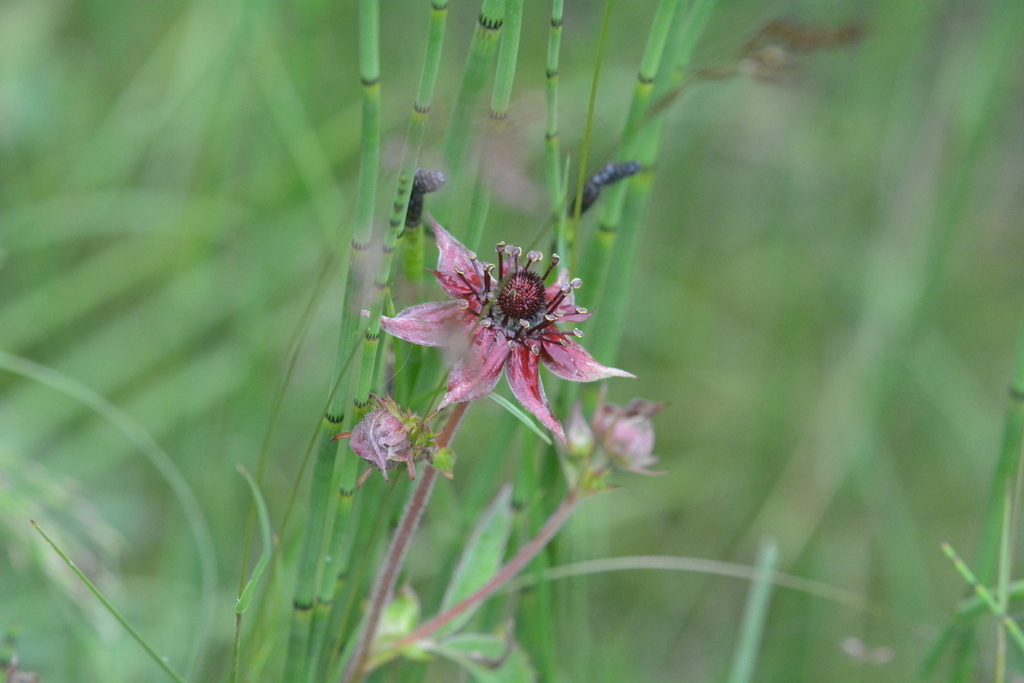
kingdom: Plantae
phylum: Tracheophyta
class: Magnoliopsida
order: Rosales
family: Rosaceae
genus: Comarum
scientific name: Comarum palustre
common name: Marsh cinquefoil
